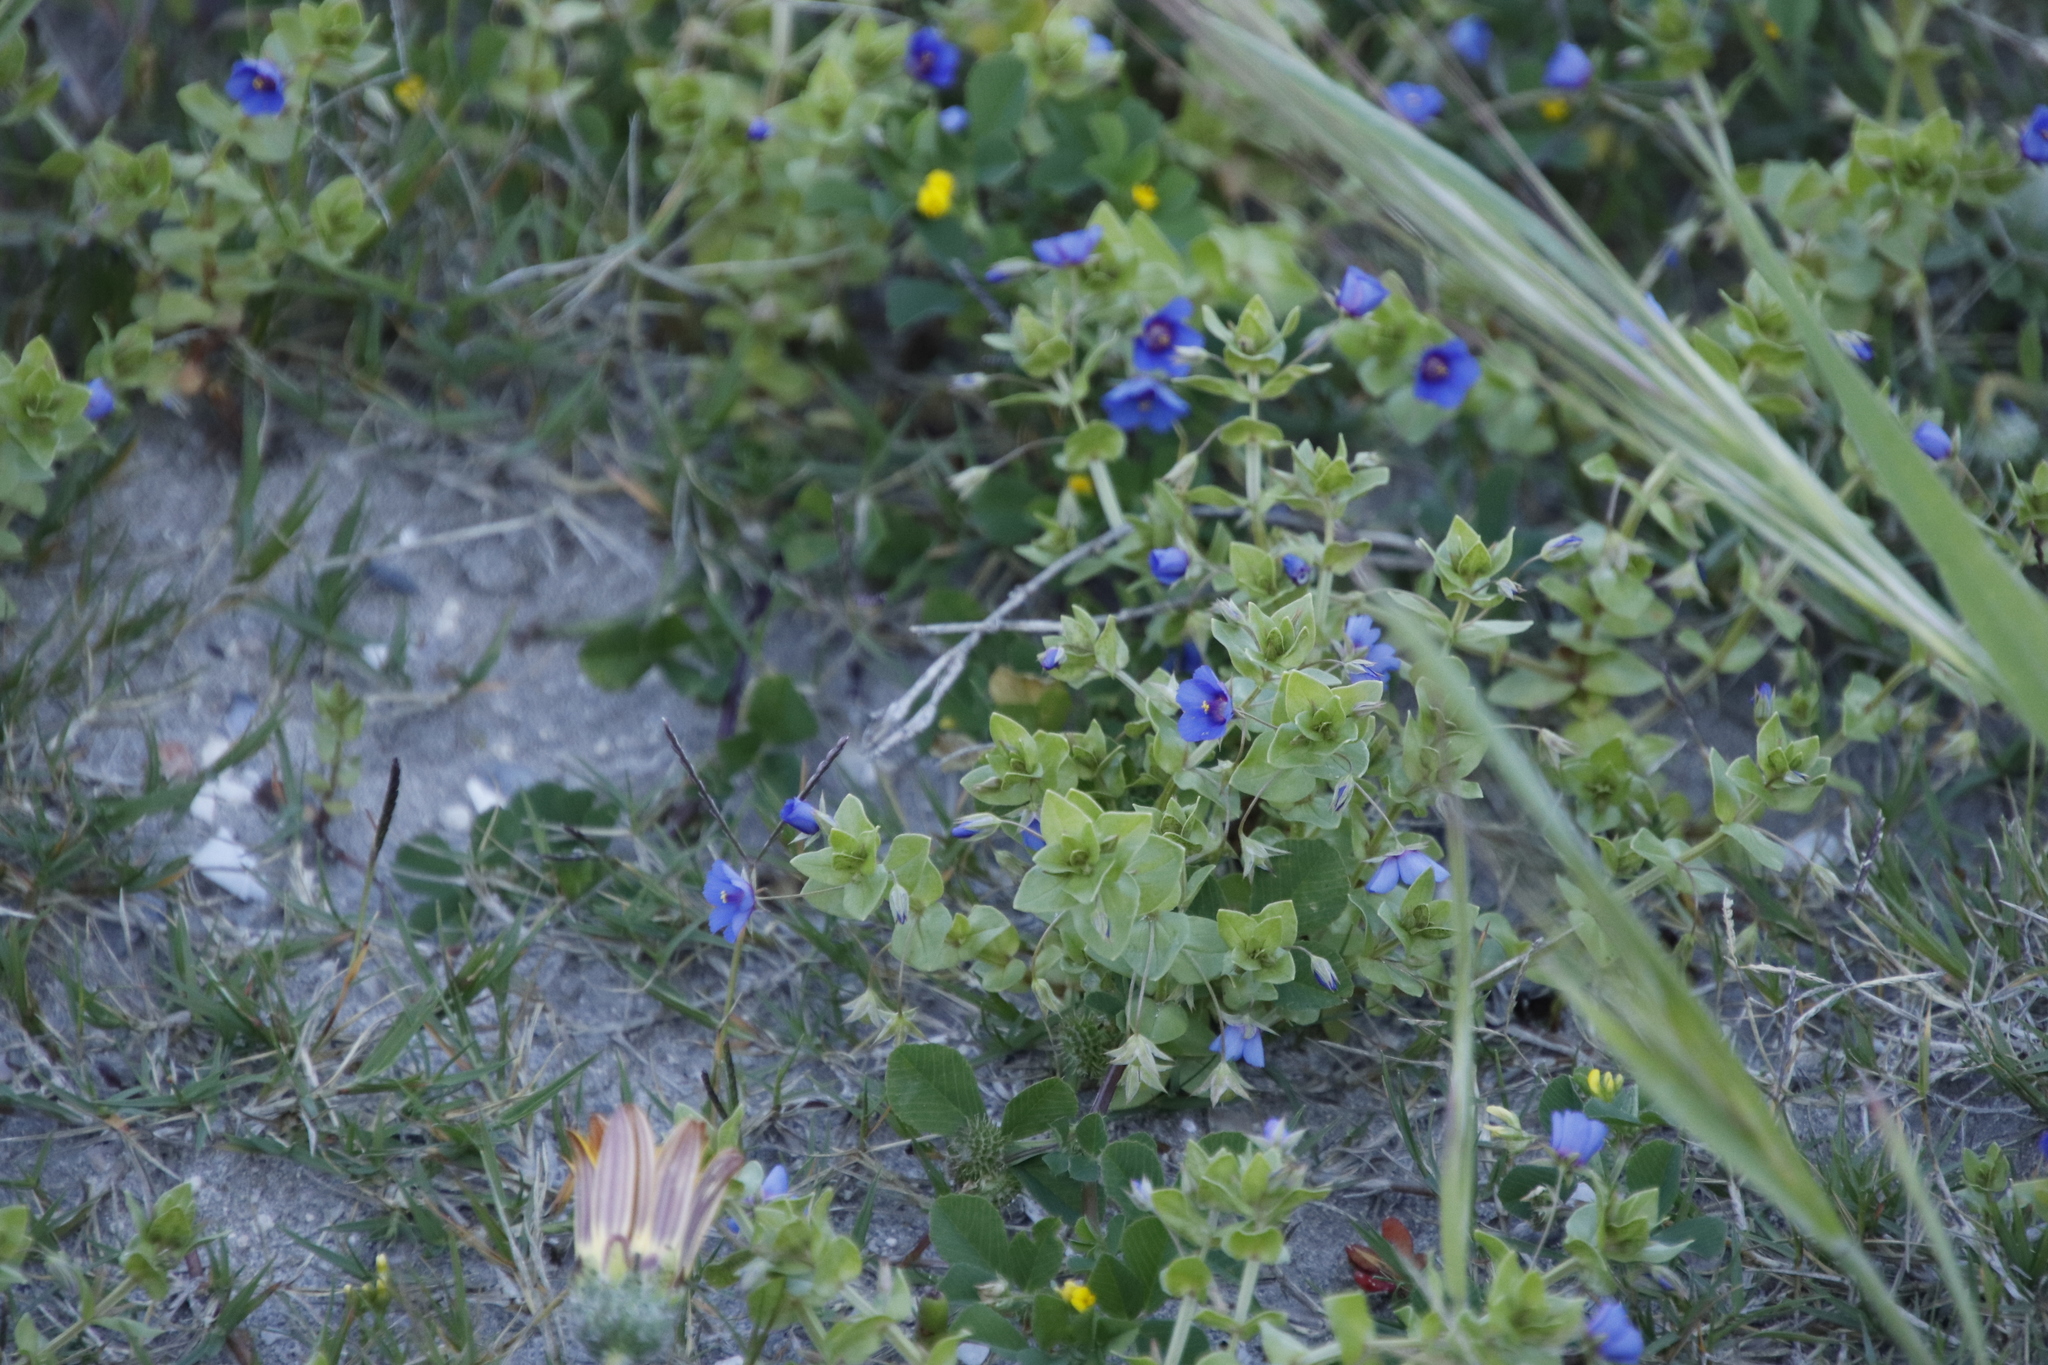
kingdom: Plantae
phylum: Tracheophyta
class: Magnoliopsida
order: Ericales
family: Primulaceae
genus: Lysimachia
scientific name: Lysimachia loeflingii
